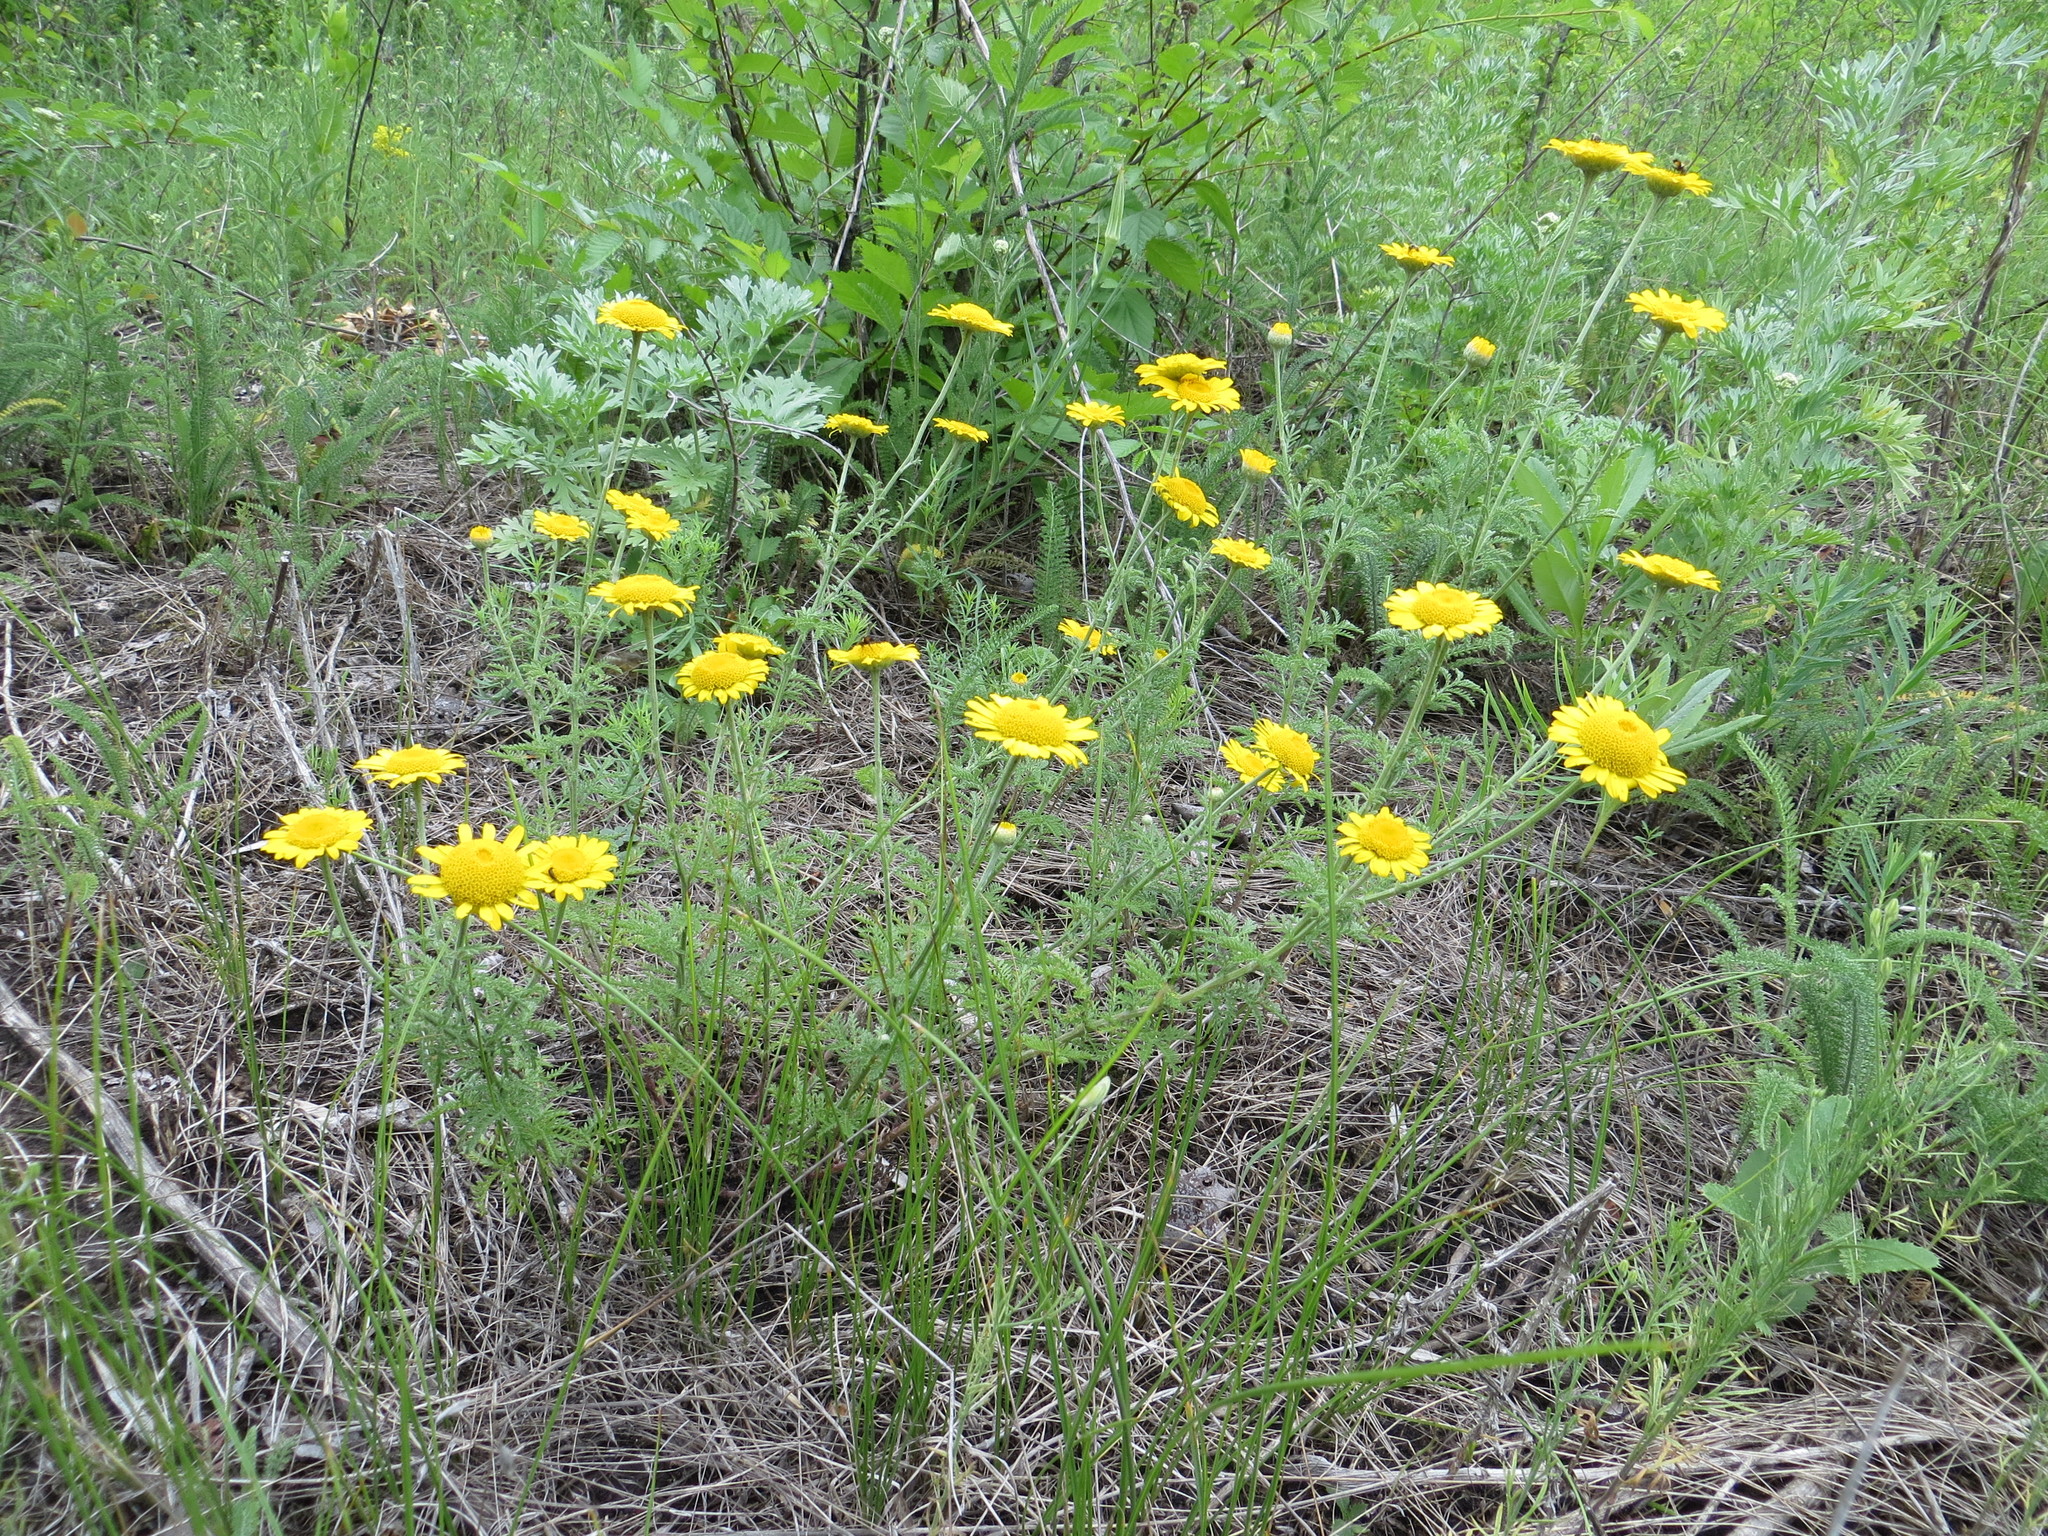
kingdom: Plantae
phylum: Tracheophyta
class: Magnoliopsida
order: Asterales
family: Asteraceae
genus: Cota
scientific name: Cota tinctoria
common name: Golden chamomile
